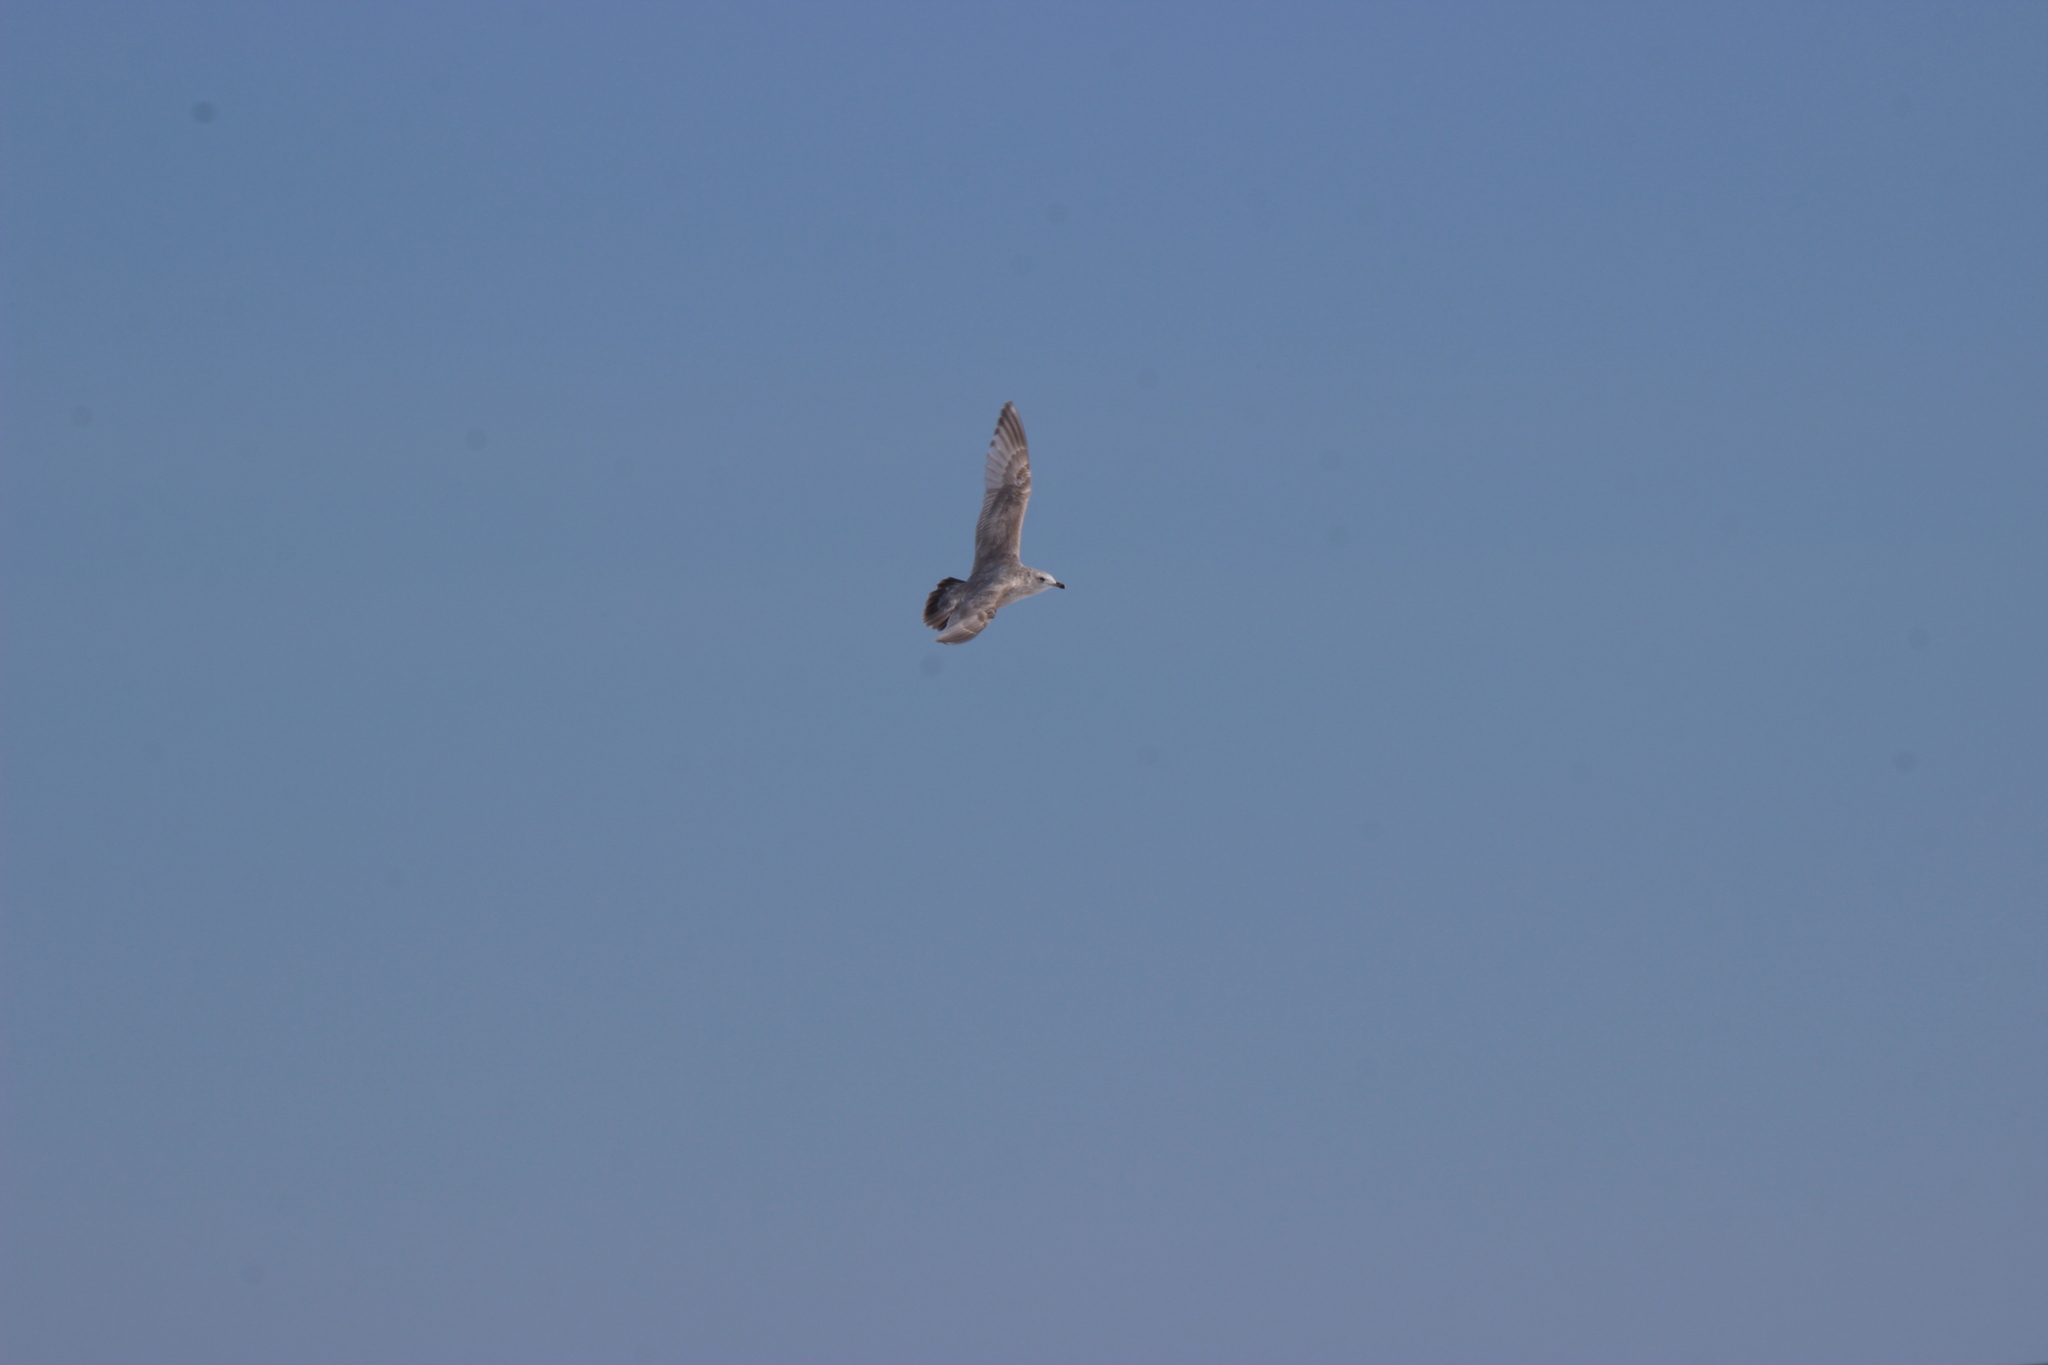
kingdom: Animalia
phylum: Chordata
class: Aves
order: Charadriiformes
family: Laridae
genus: Larus
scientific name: Larus glaucoides
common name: Iceland gull
